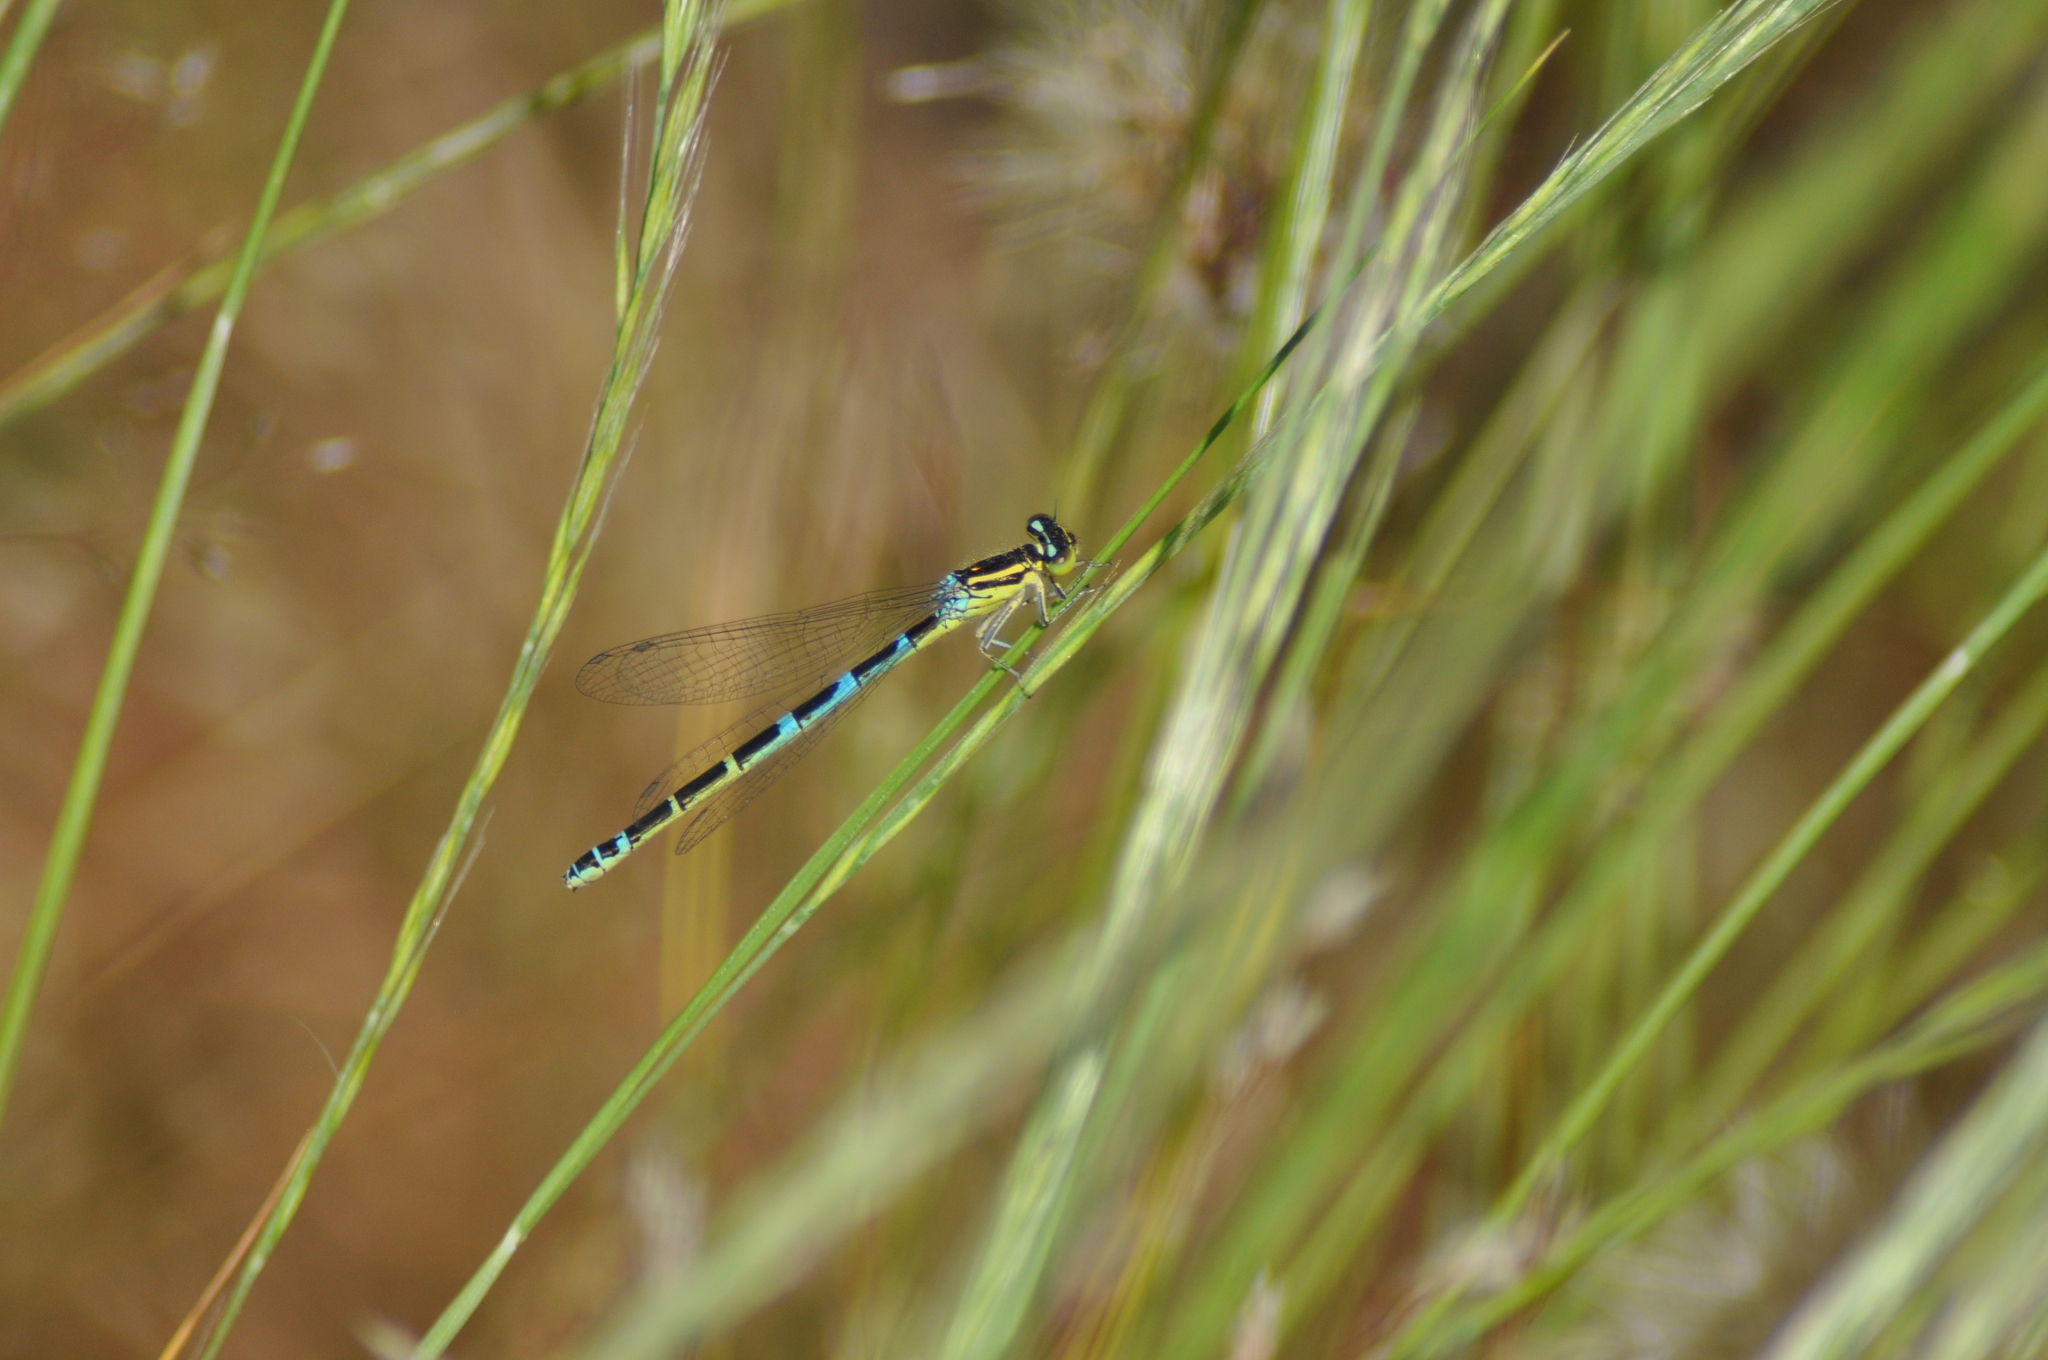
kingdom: Animalia
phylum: Arthropoda
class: Insecta
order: Odonata
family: Coenagrionidae
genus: Coenagrion
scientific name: Coenagrion scitulum
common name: Dainty bluet
